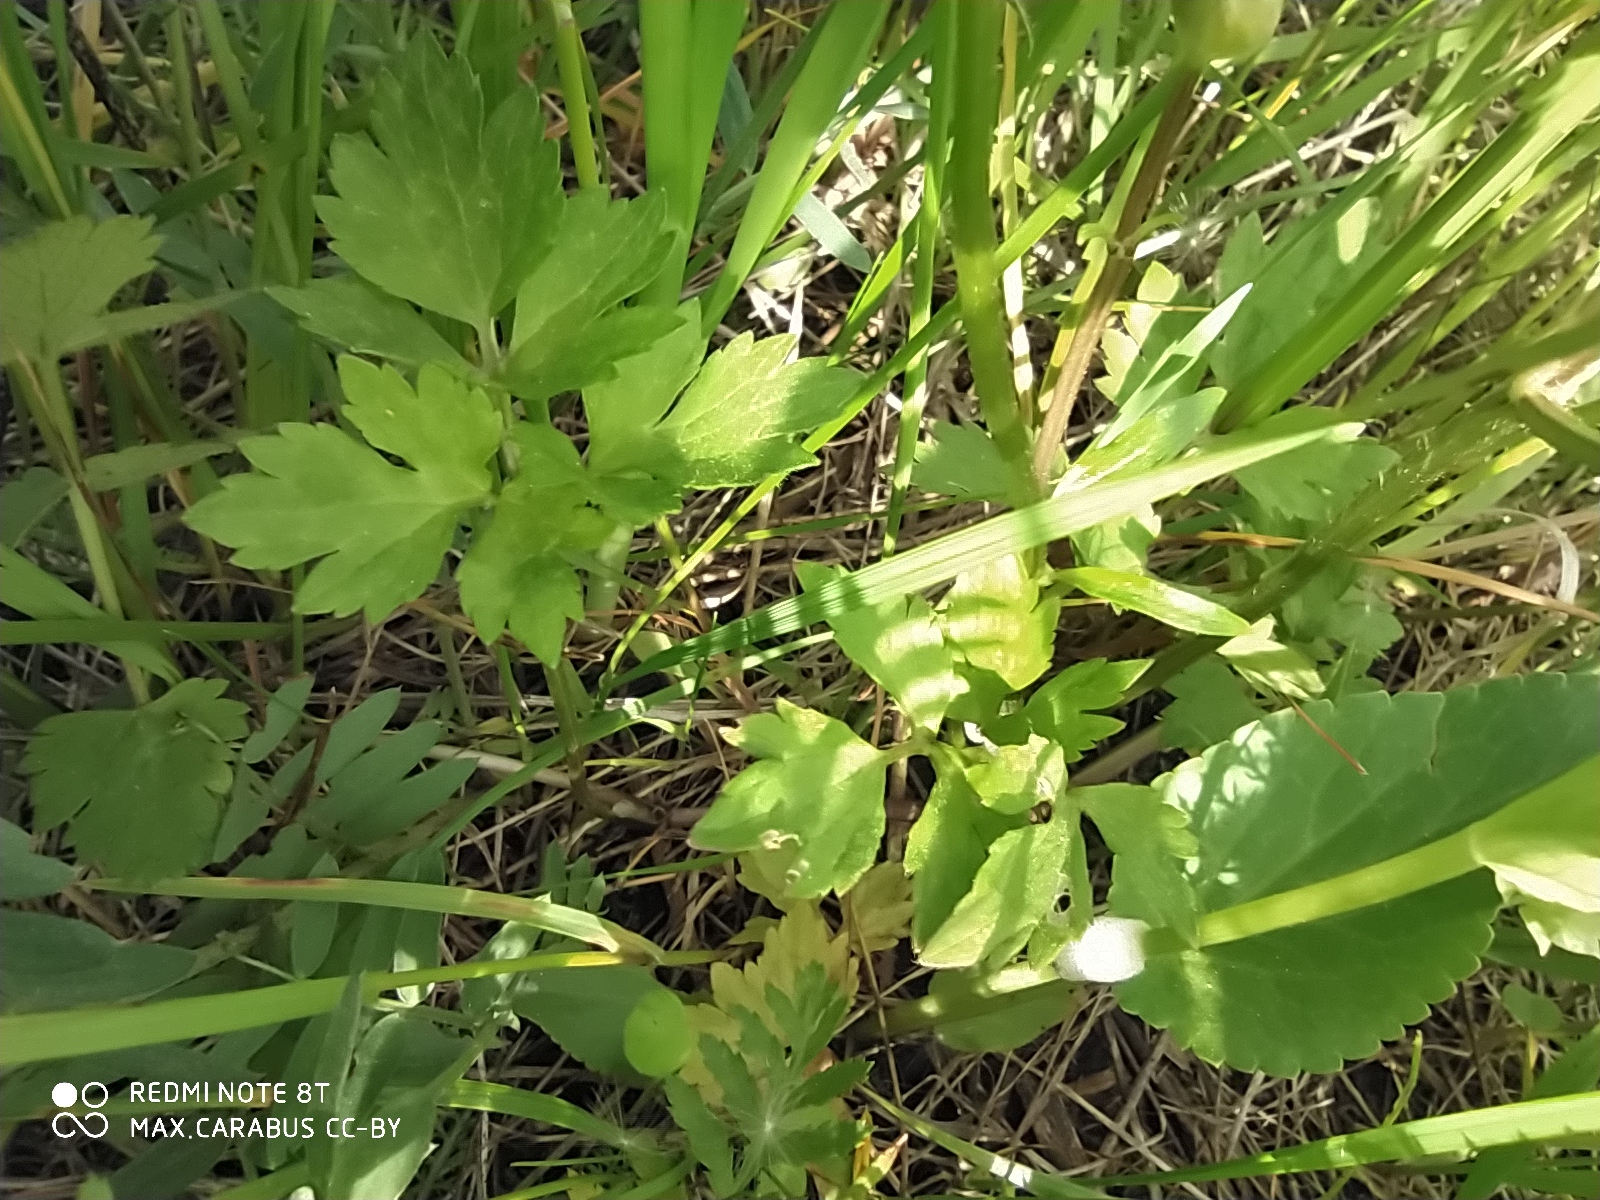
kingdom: Plantae
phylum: Tracheophyta
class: Magnoliopsida
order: Ranunculales
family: Ranunculaceae
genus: Ranunculus
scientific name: Ranunculus repens
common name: Creeping buttercup
